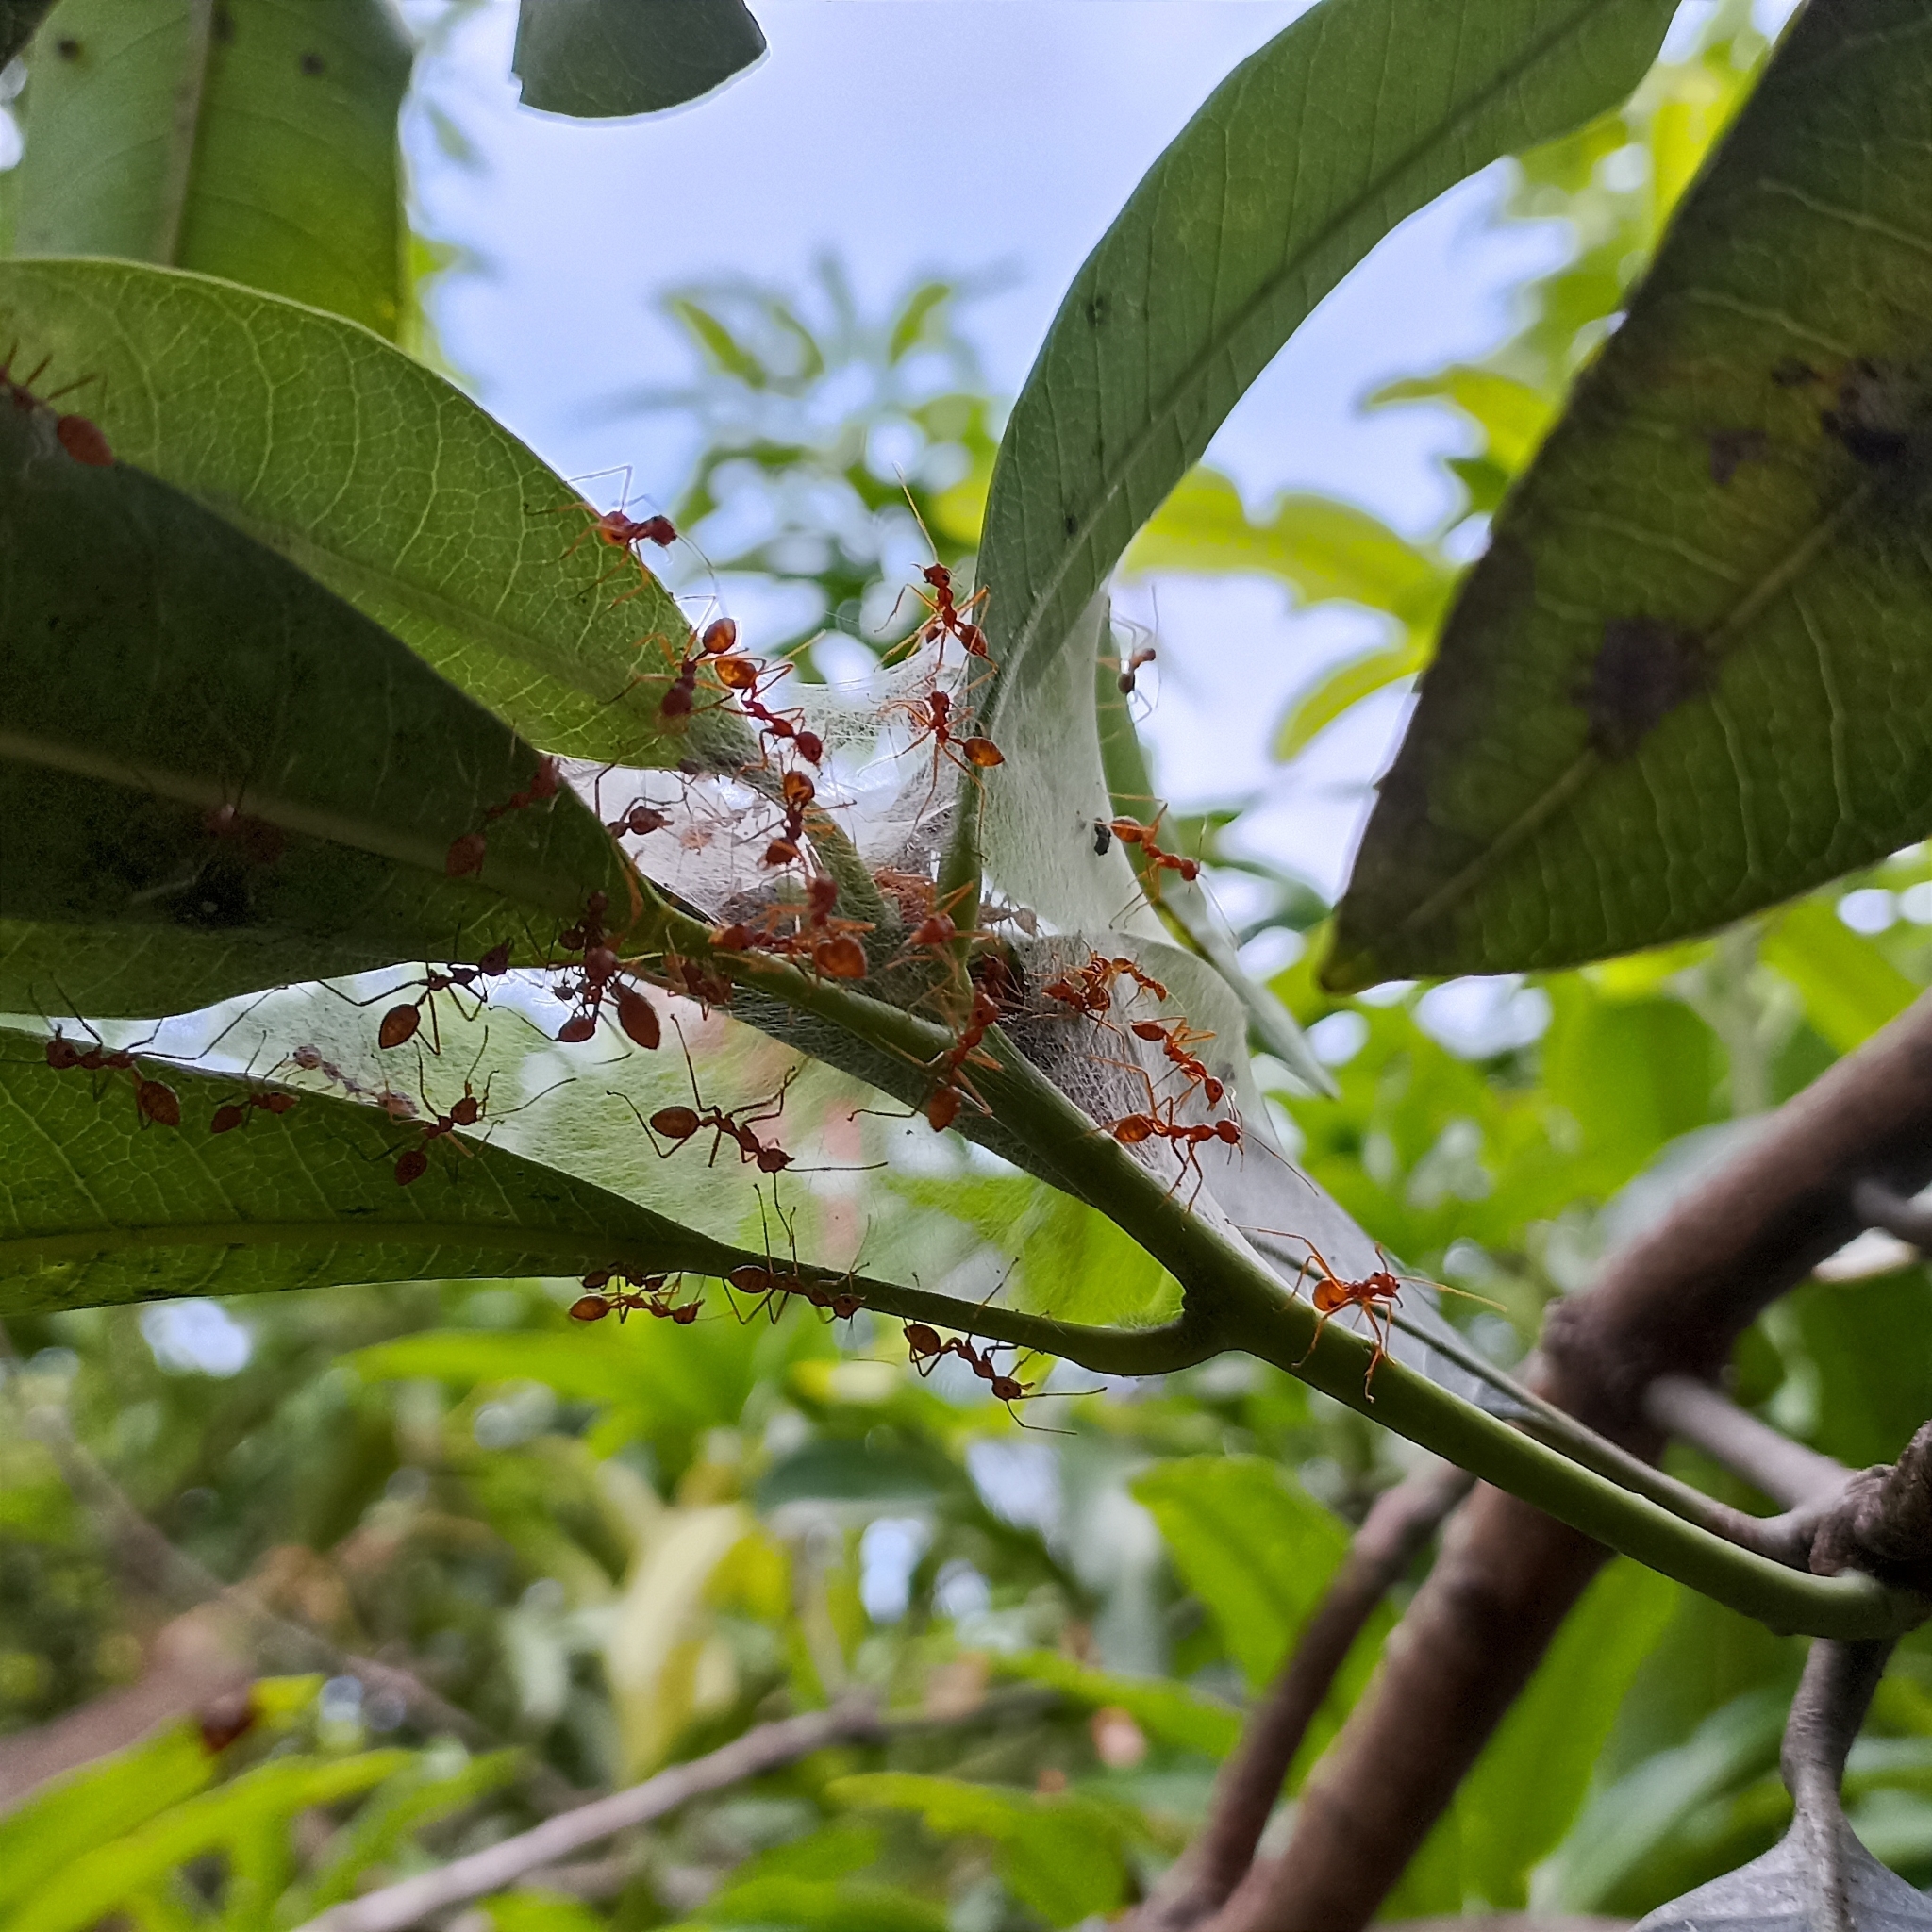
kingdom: Animalia
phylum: Arthropoda
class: Insecta
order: Hymenoptera
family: Formicidae
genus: Oecophylla
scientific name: Oecophylla smaragdina
